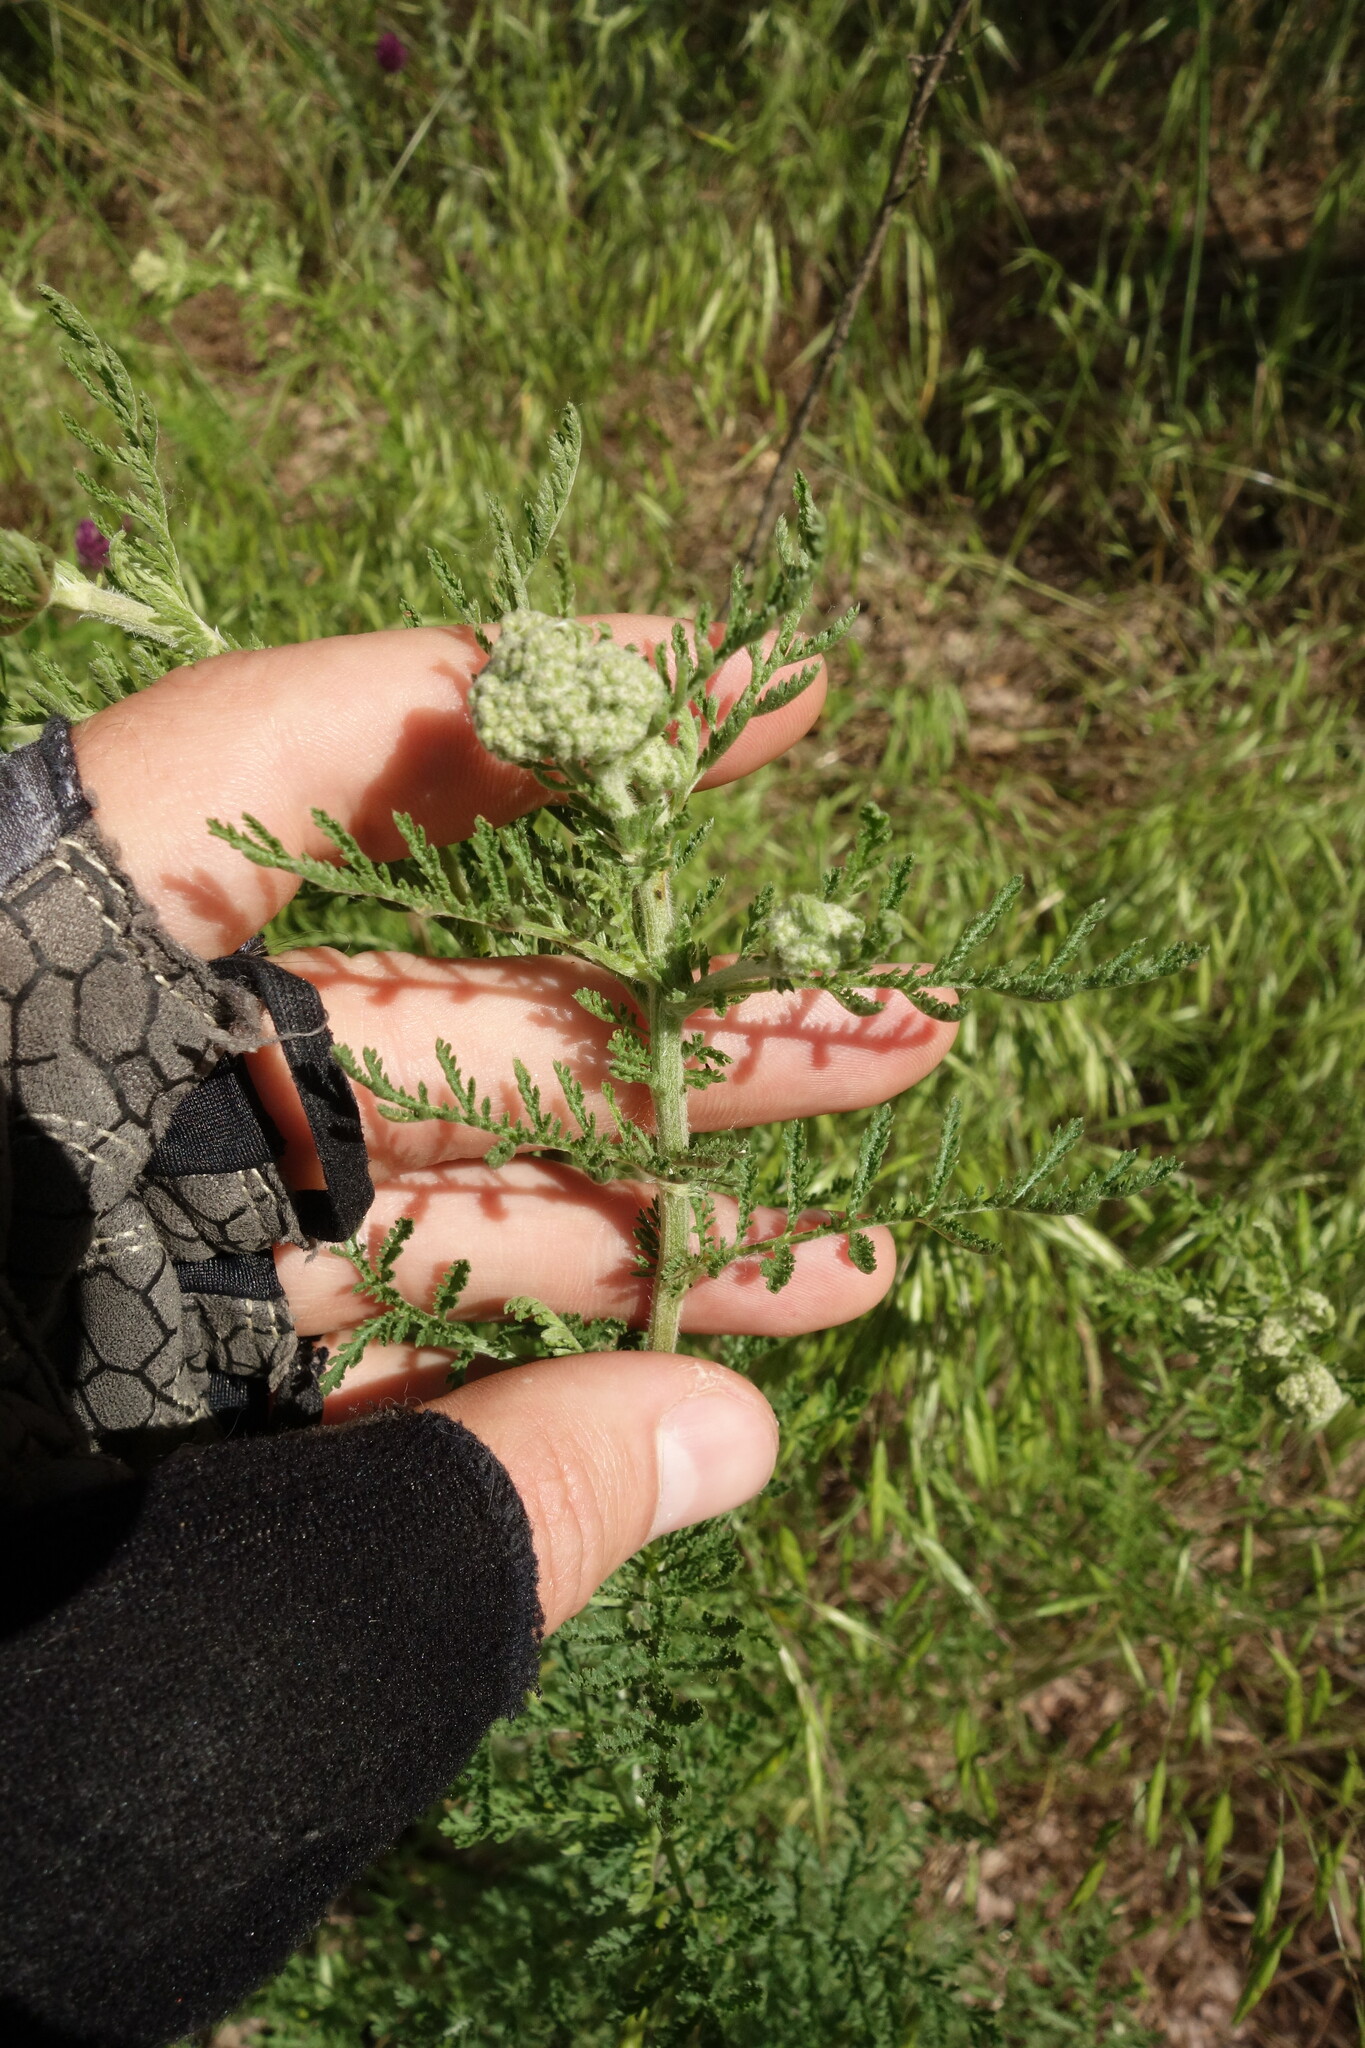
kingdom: Plantae
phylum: Tracheophyta
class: Magnoliopsida
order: Asterales
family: Asteraceae
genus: Achillea
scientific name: Achillea nobilis
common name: Noble yarrow
